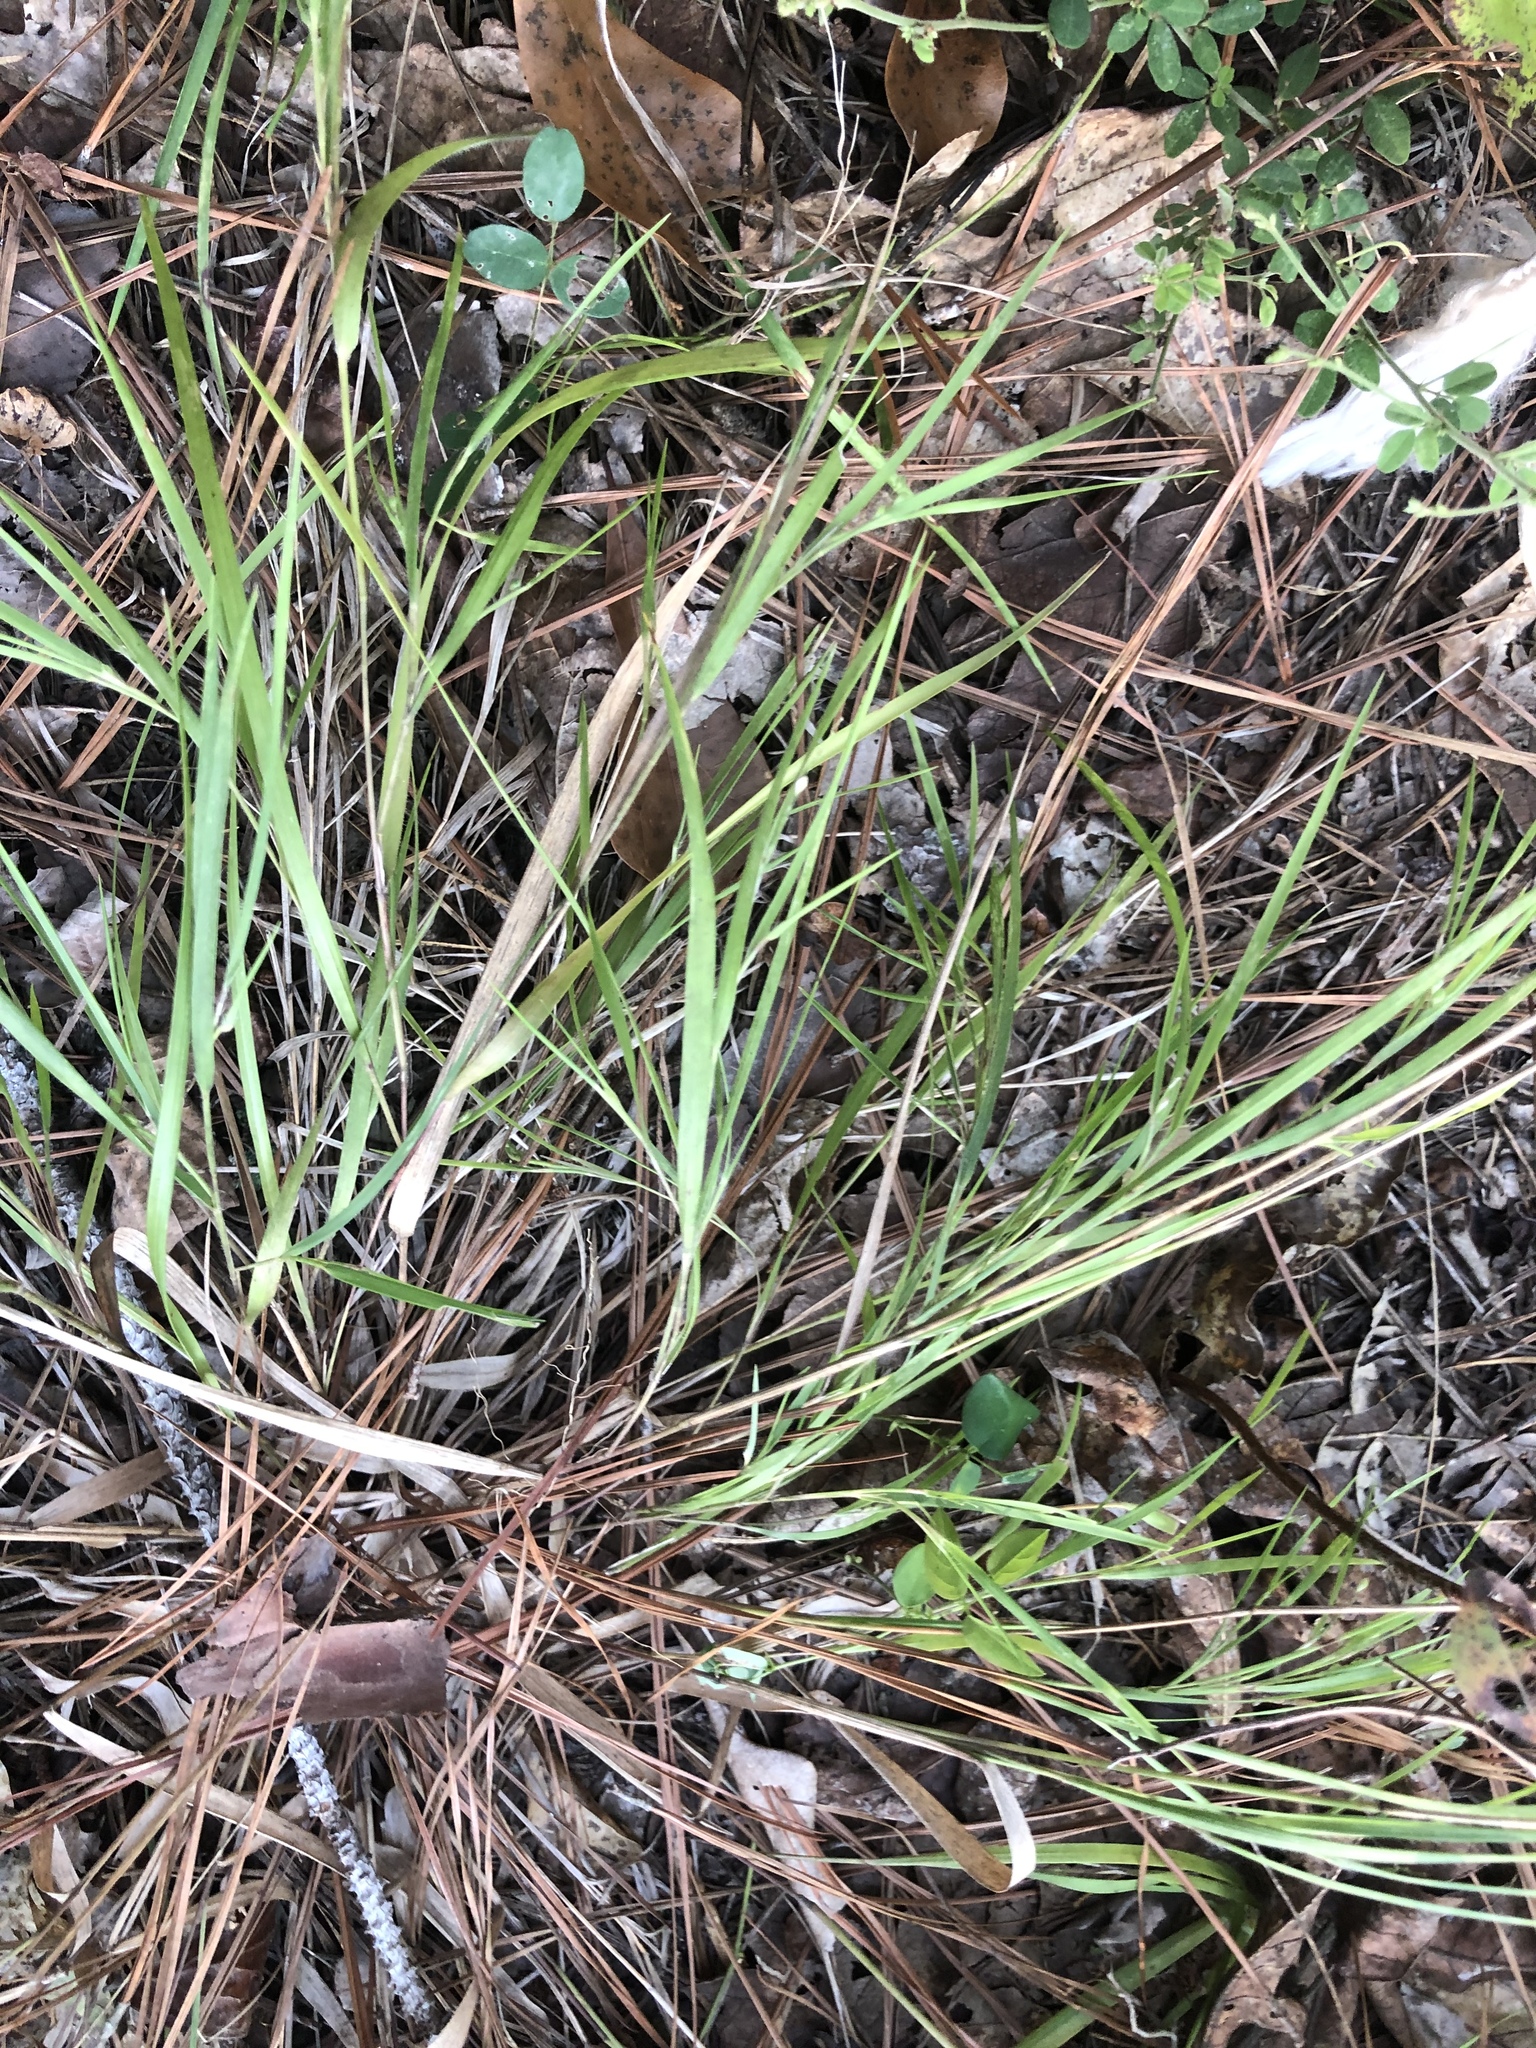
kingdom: Plantae
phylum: Tracheophyta
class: Liliopsida
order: Poales
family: Poaceae
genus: Dichanthelium
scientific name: Dichanthelium angustifolium
